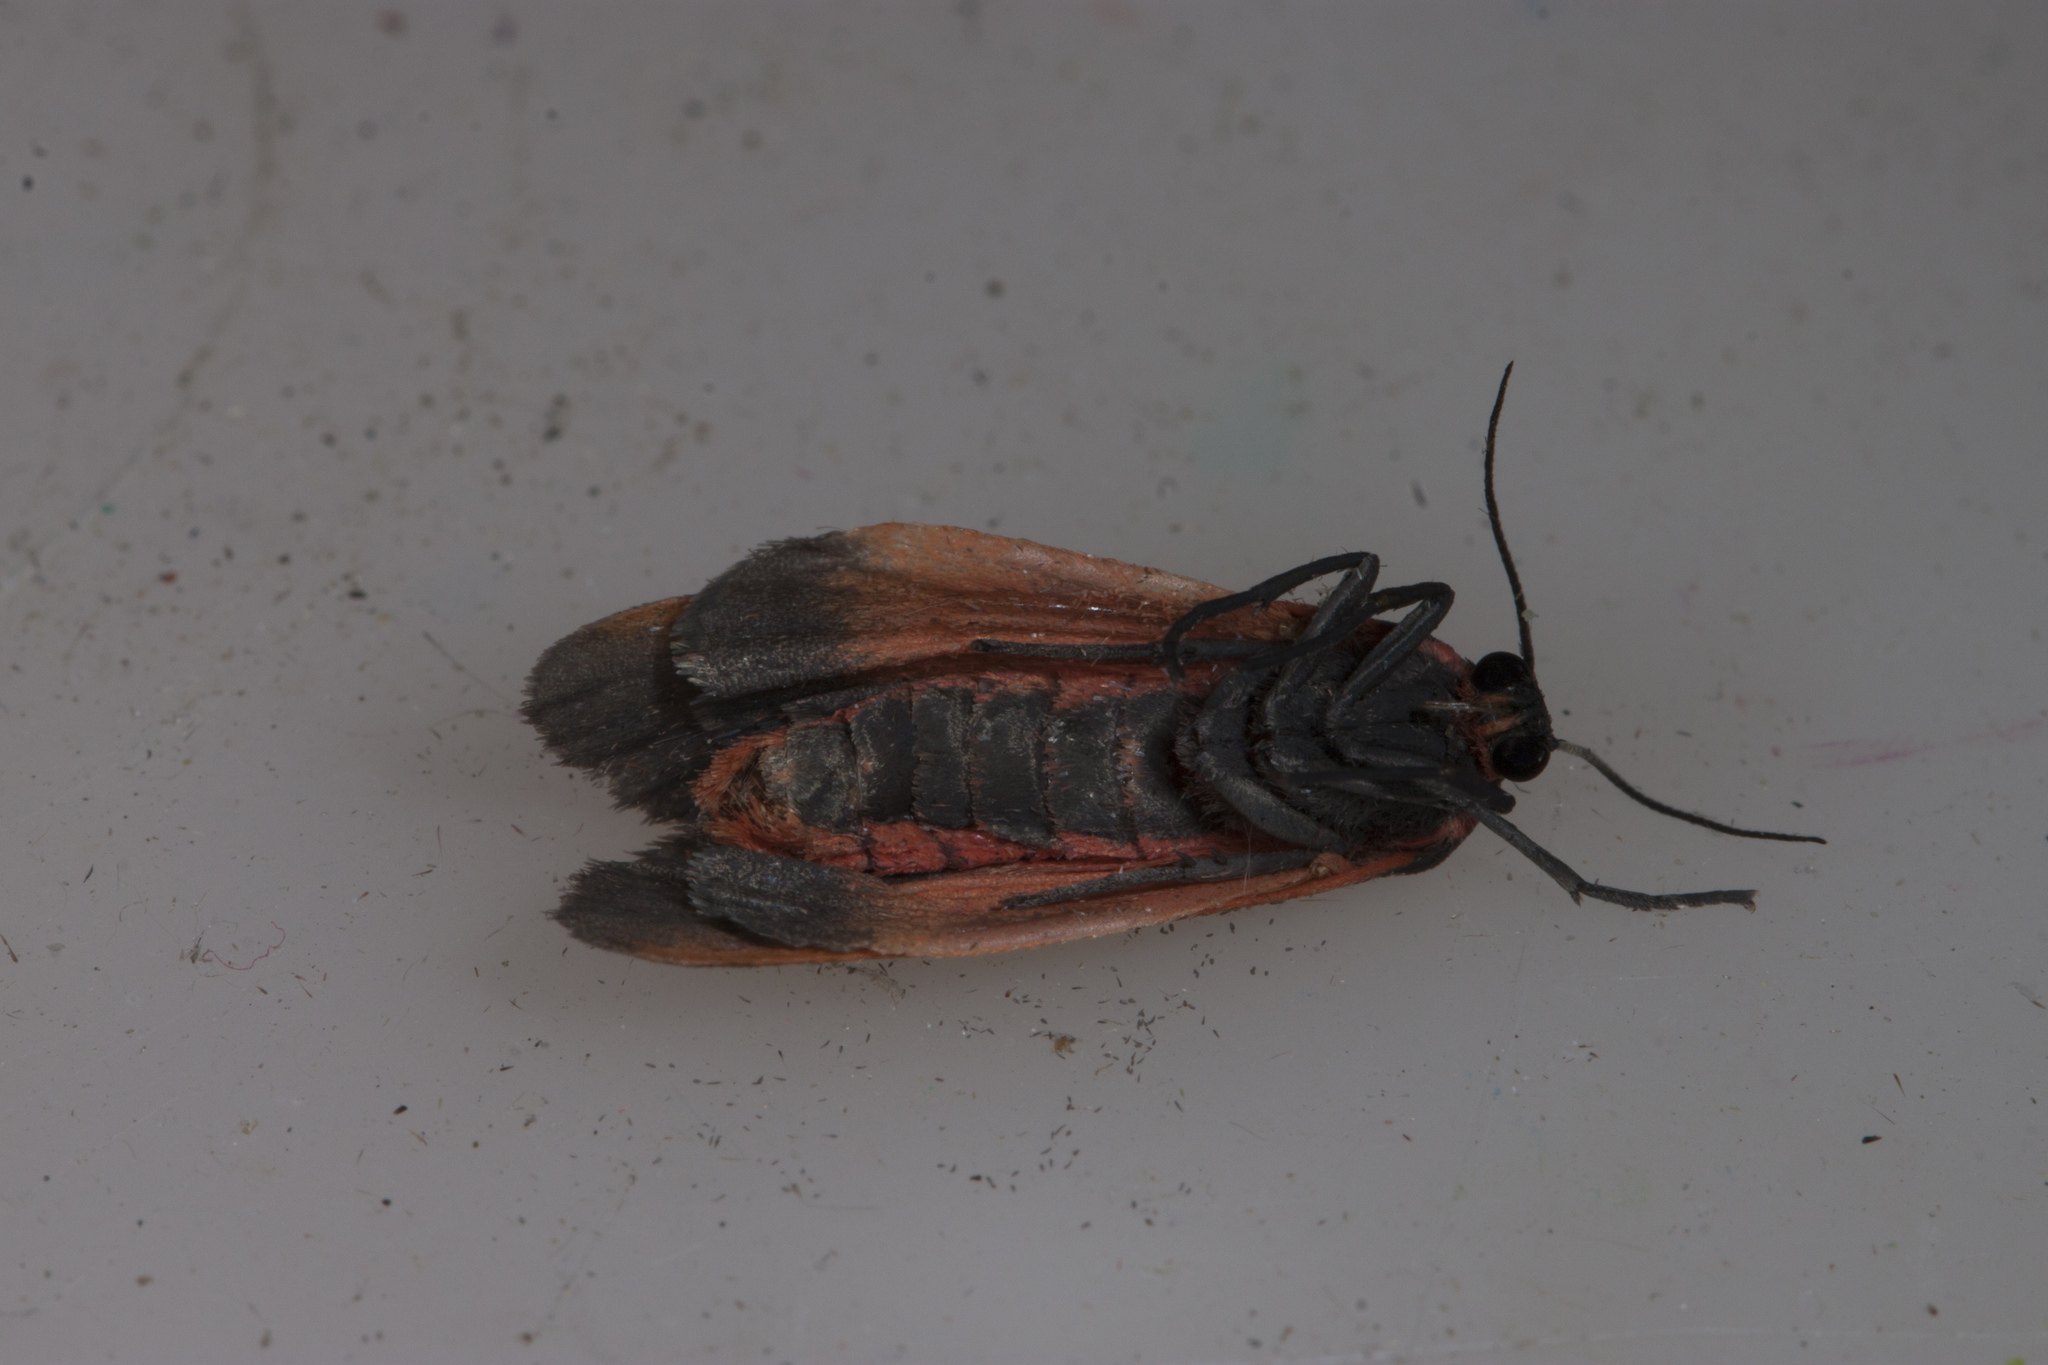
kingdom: Animalia
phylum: Arthropoda
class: Insecta
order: Lepidoptera
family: Erebidae
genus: Virbia
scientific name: Virbia laeta
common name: Joyful holomelina moth
